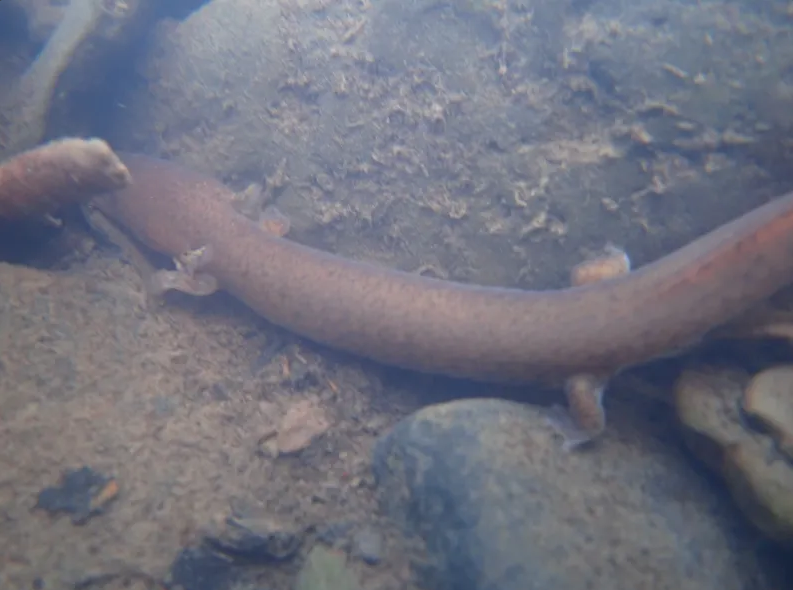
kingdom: Animalia
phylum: Chordata
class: Amphibia
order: Caudata
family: Plethodontidae
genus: Gyrinophilus
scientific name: Gyrinophilus porphyriticus
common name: Spring salamander
